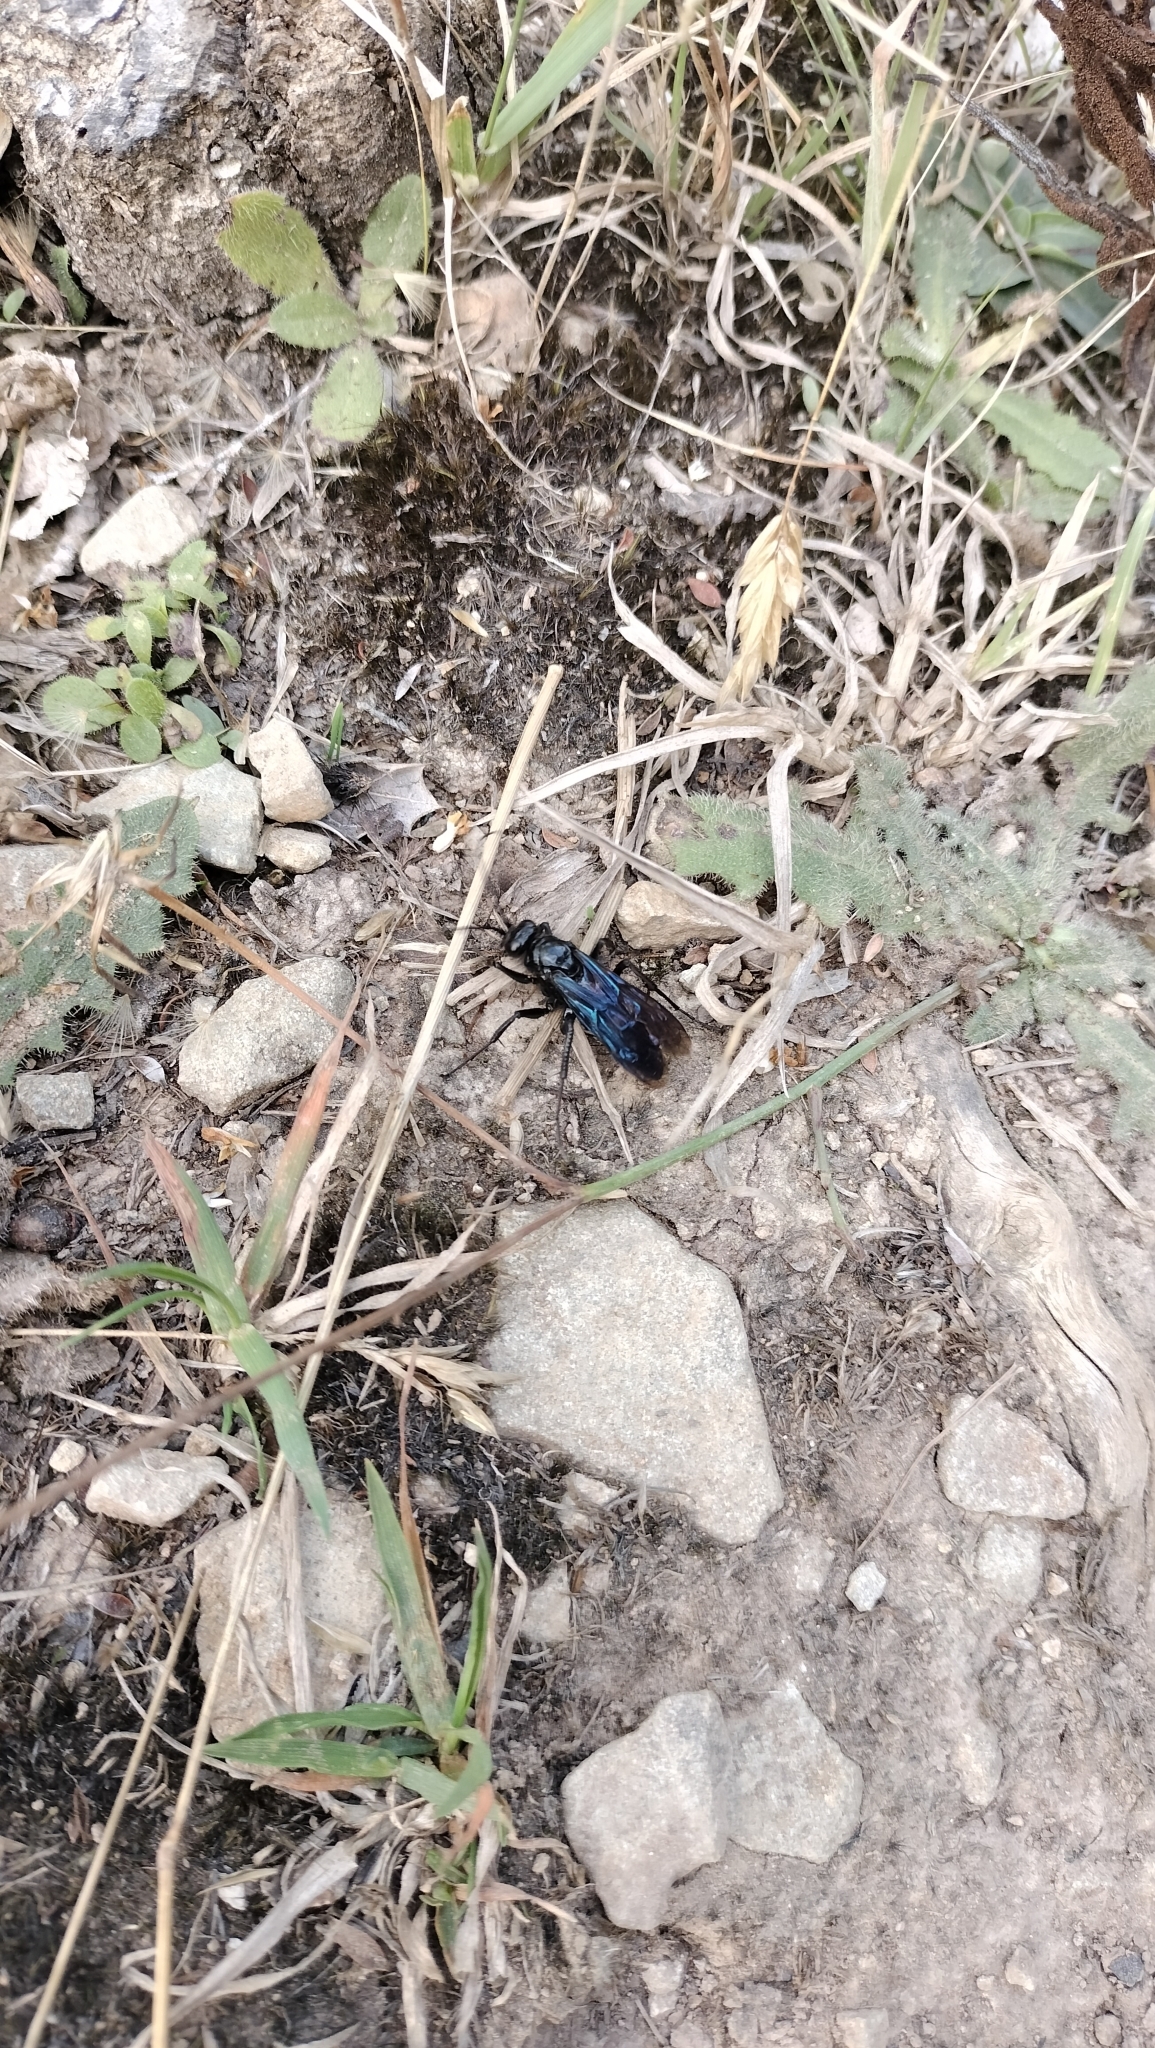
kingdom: Animalia
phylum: Arthropoda
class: Insecta
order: Hymenoptera
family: Pompilidae
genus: Priocnemis
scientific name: Priocnemis monachus
